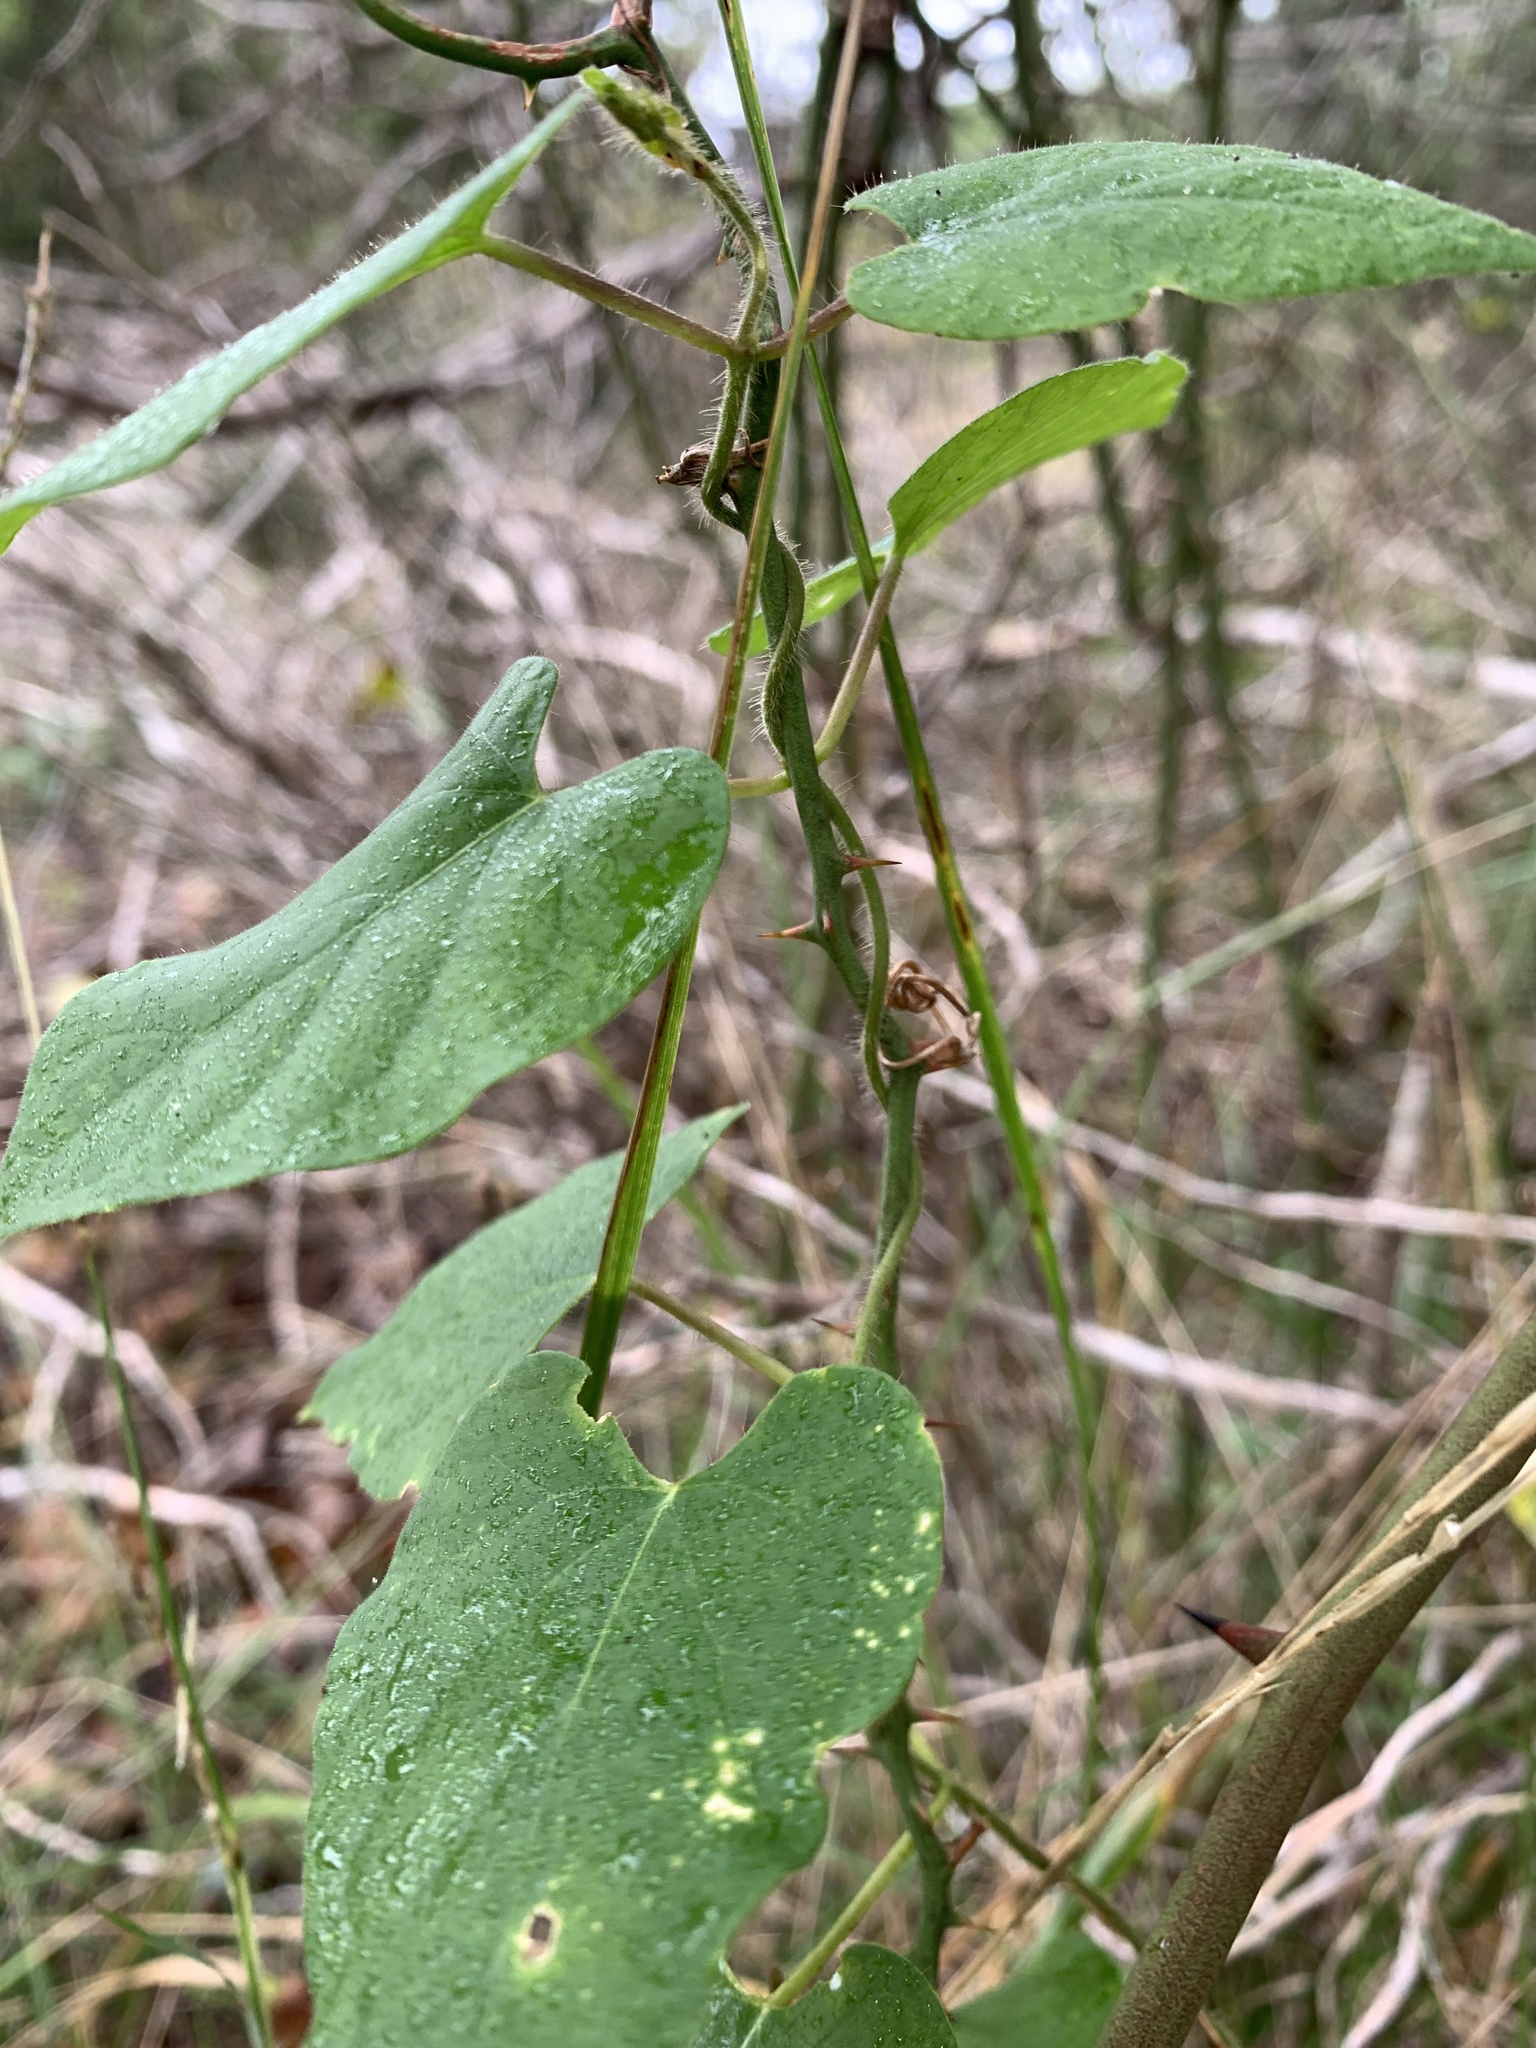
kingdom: Plantae
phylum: Tracheophyta
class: Magnoliopsida
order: Ranunculales
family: Menispermaceae
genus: Cocculus
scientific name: Cocculus carolinus
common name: Carolina moonseed
